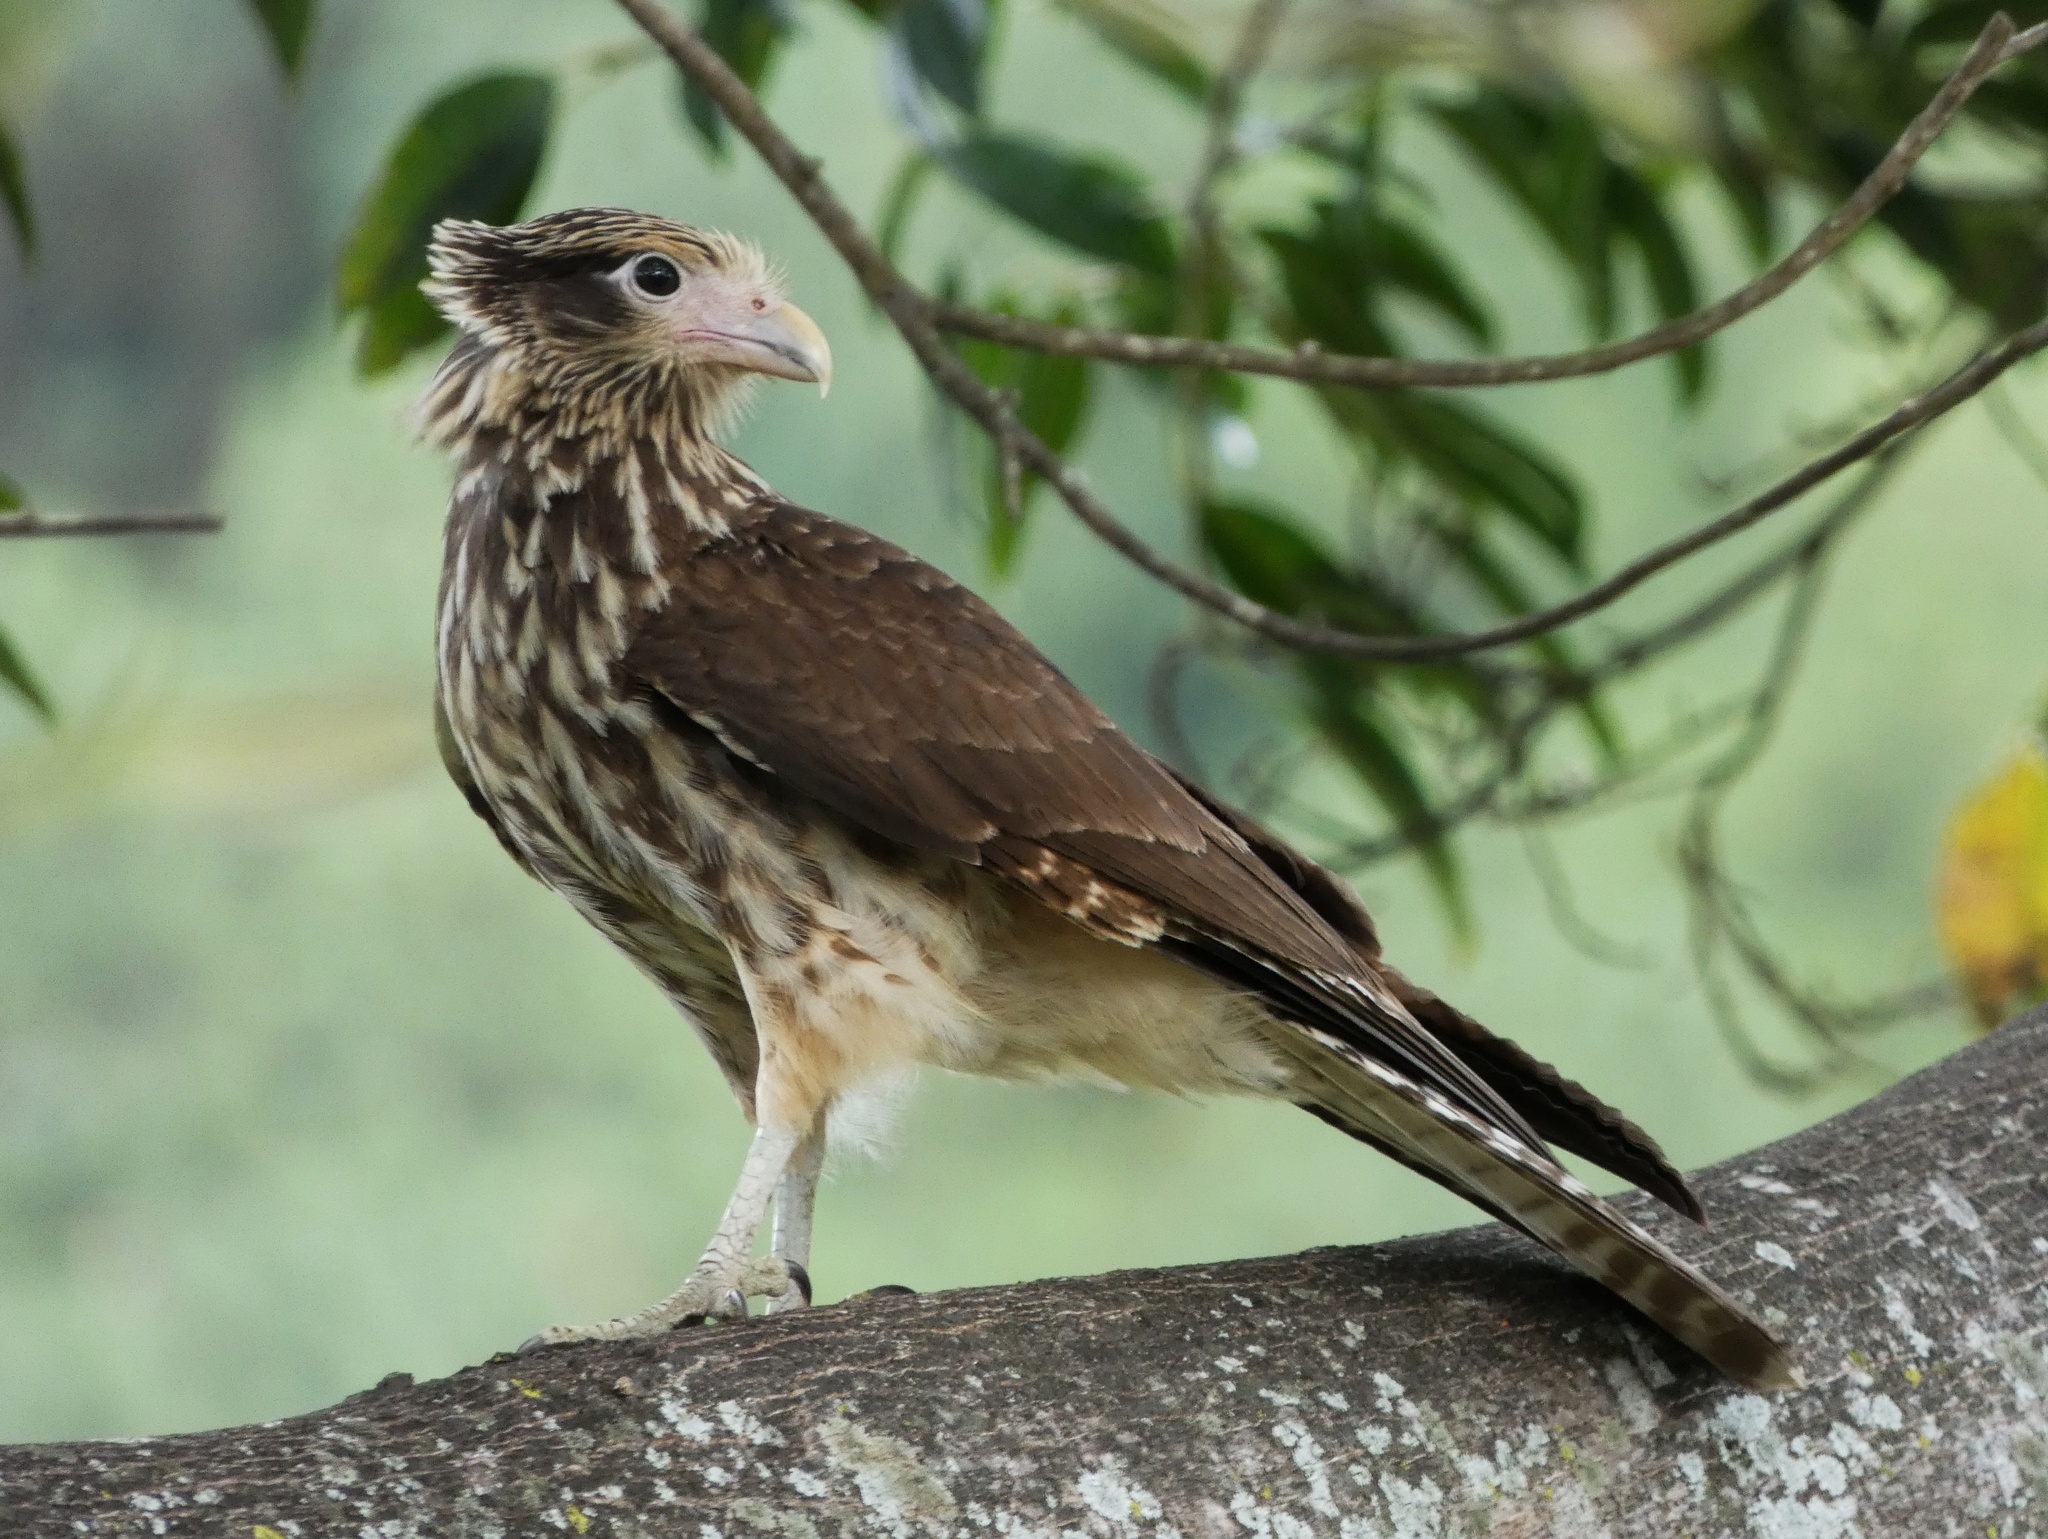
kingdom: Animalia
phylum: Chordata
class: Aves
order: Falconiformes
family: Falconidae
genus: Daptrius
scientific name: Daptrius
